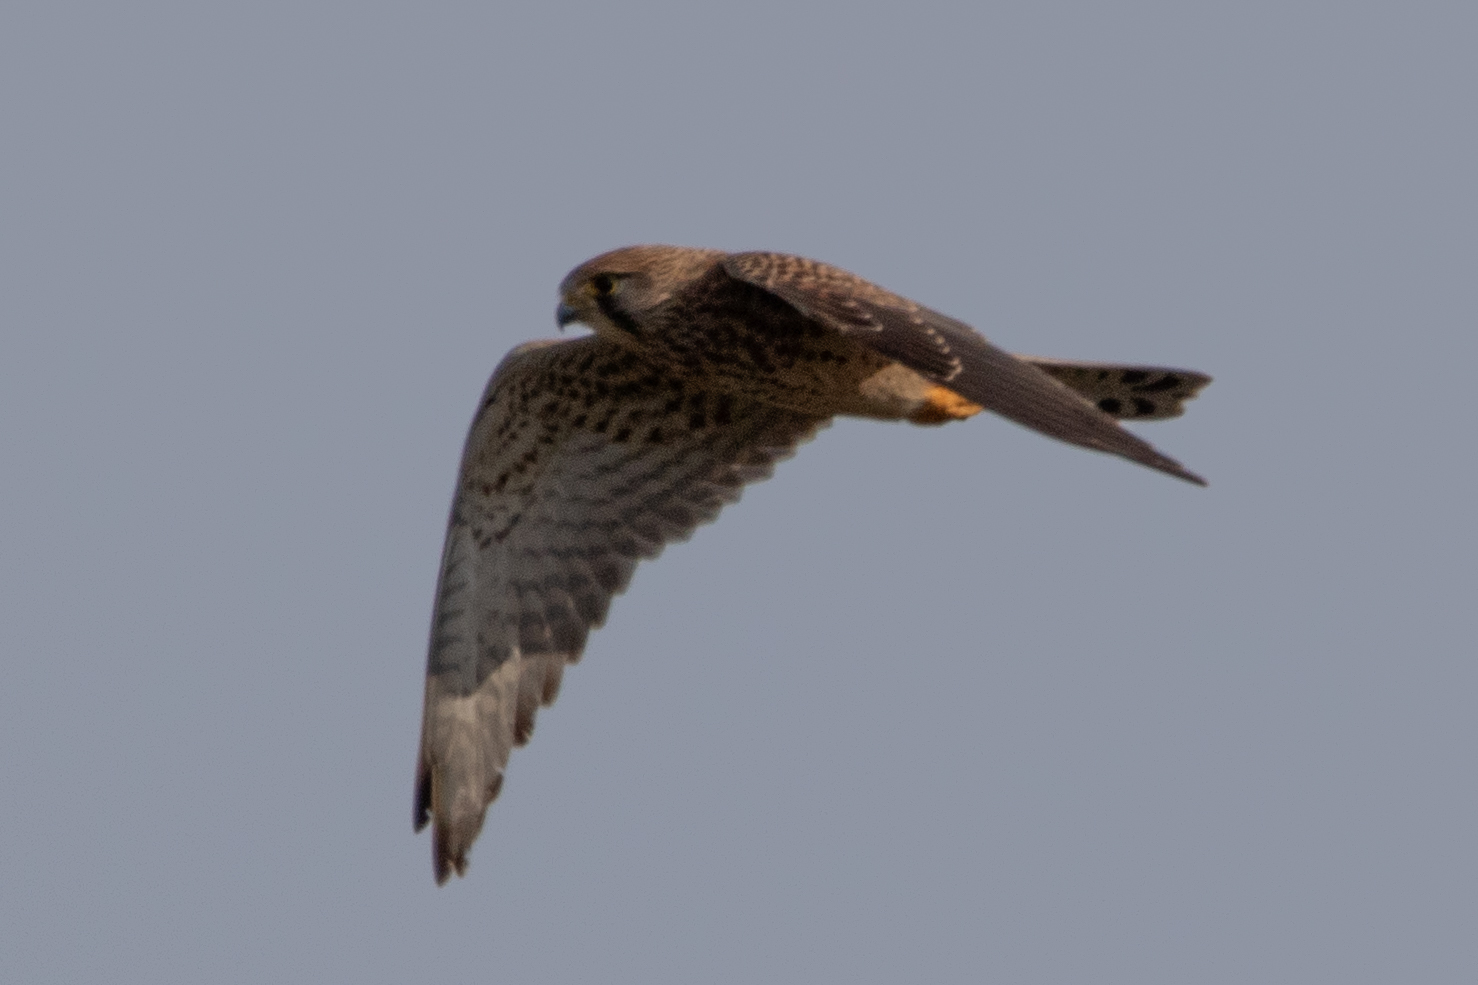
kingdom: Animalia
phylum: Chordata
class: Aves
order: Falconiformes
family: Falconidae
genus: Falco
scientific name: Falco tinnunculus
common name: Common kestrel
